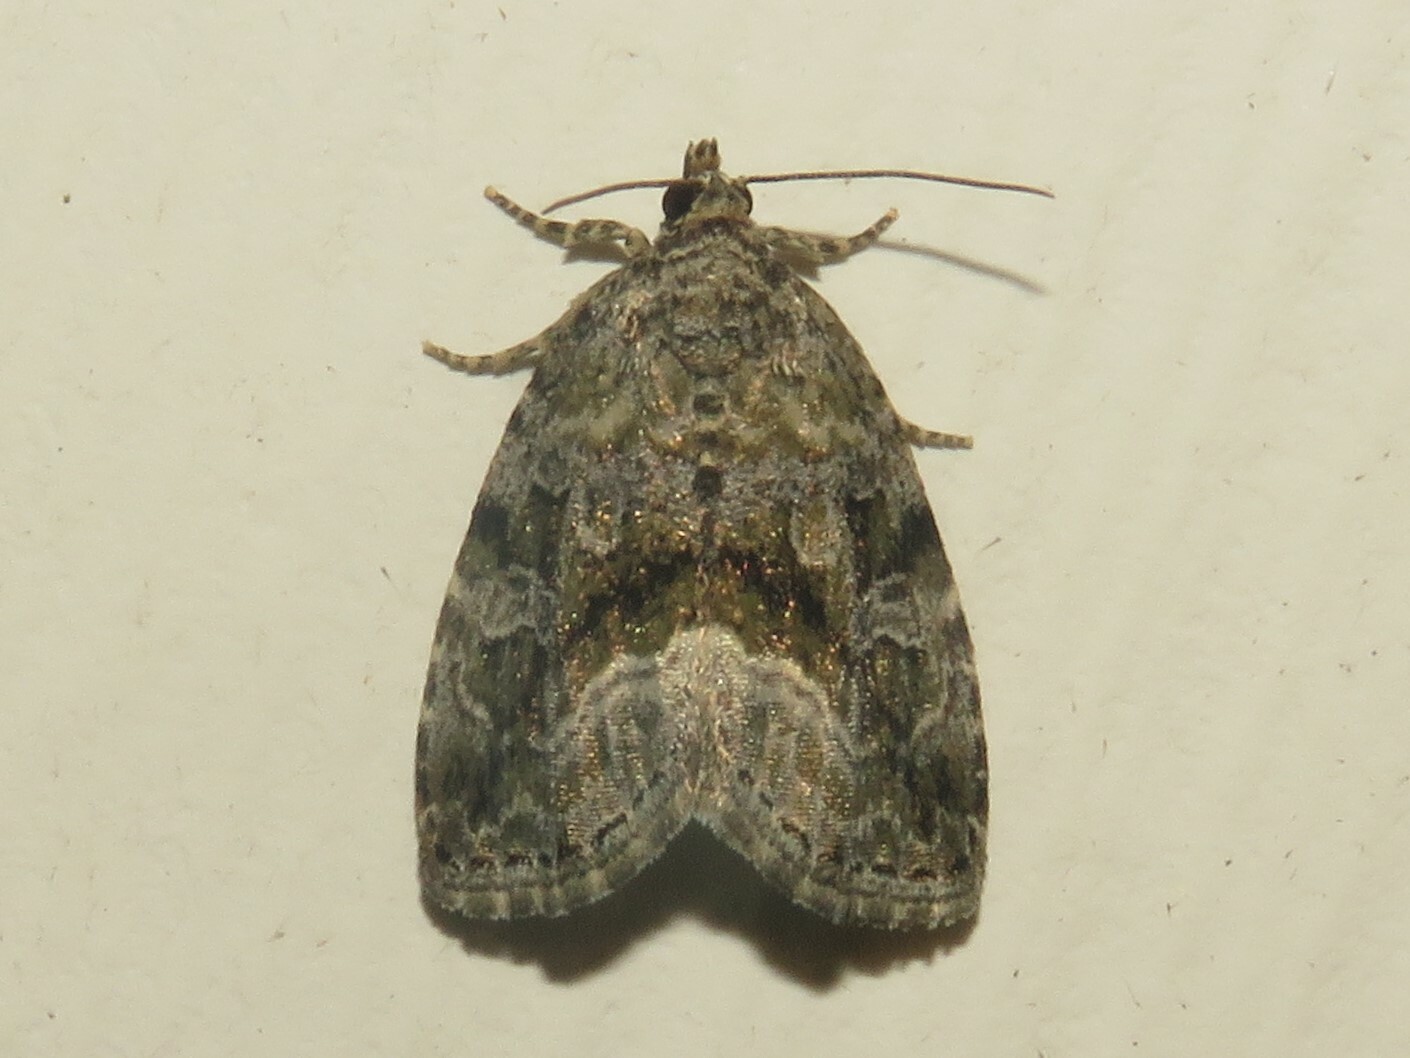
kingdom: Animalia
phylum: Arthropoda
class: Insecta
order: Lepidoptera
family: Noctuidae
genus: Protodeltote
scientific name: Protodeltote muscosula
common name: Large mossy glyph
